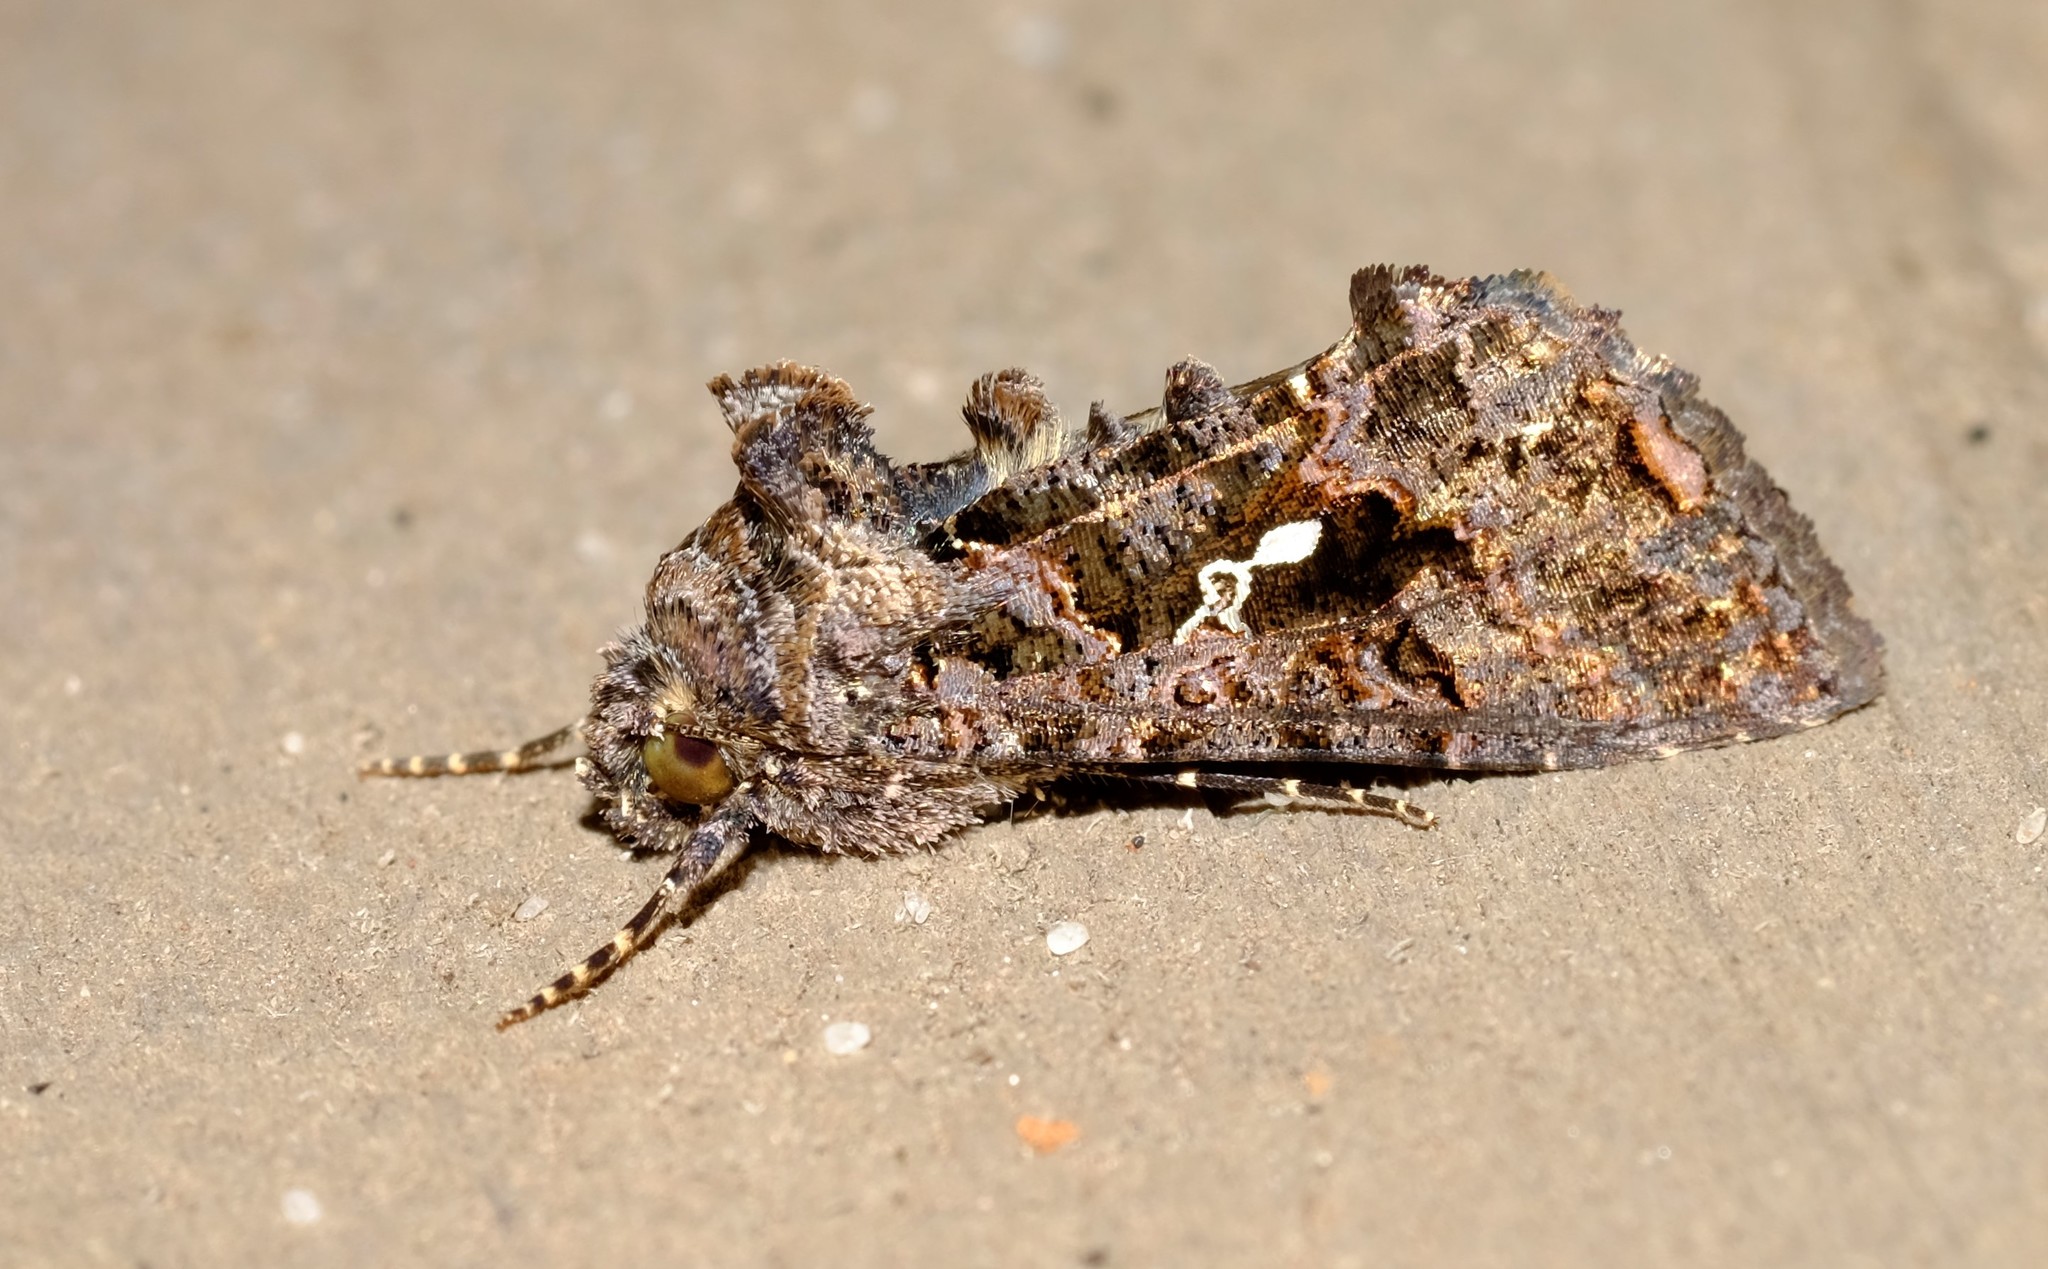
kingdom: Animalia
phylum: Arthropoda
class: Insecta
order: Lepidoptera
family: Noctuidae
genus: Ctenoplusia
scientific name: Ctenoplusia limbirena
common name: Scar bank gem
